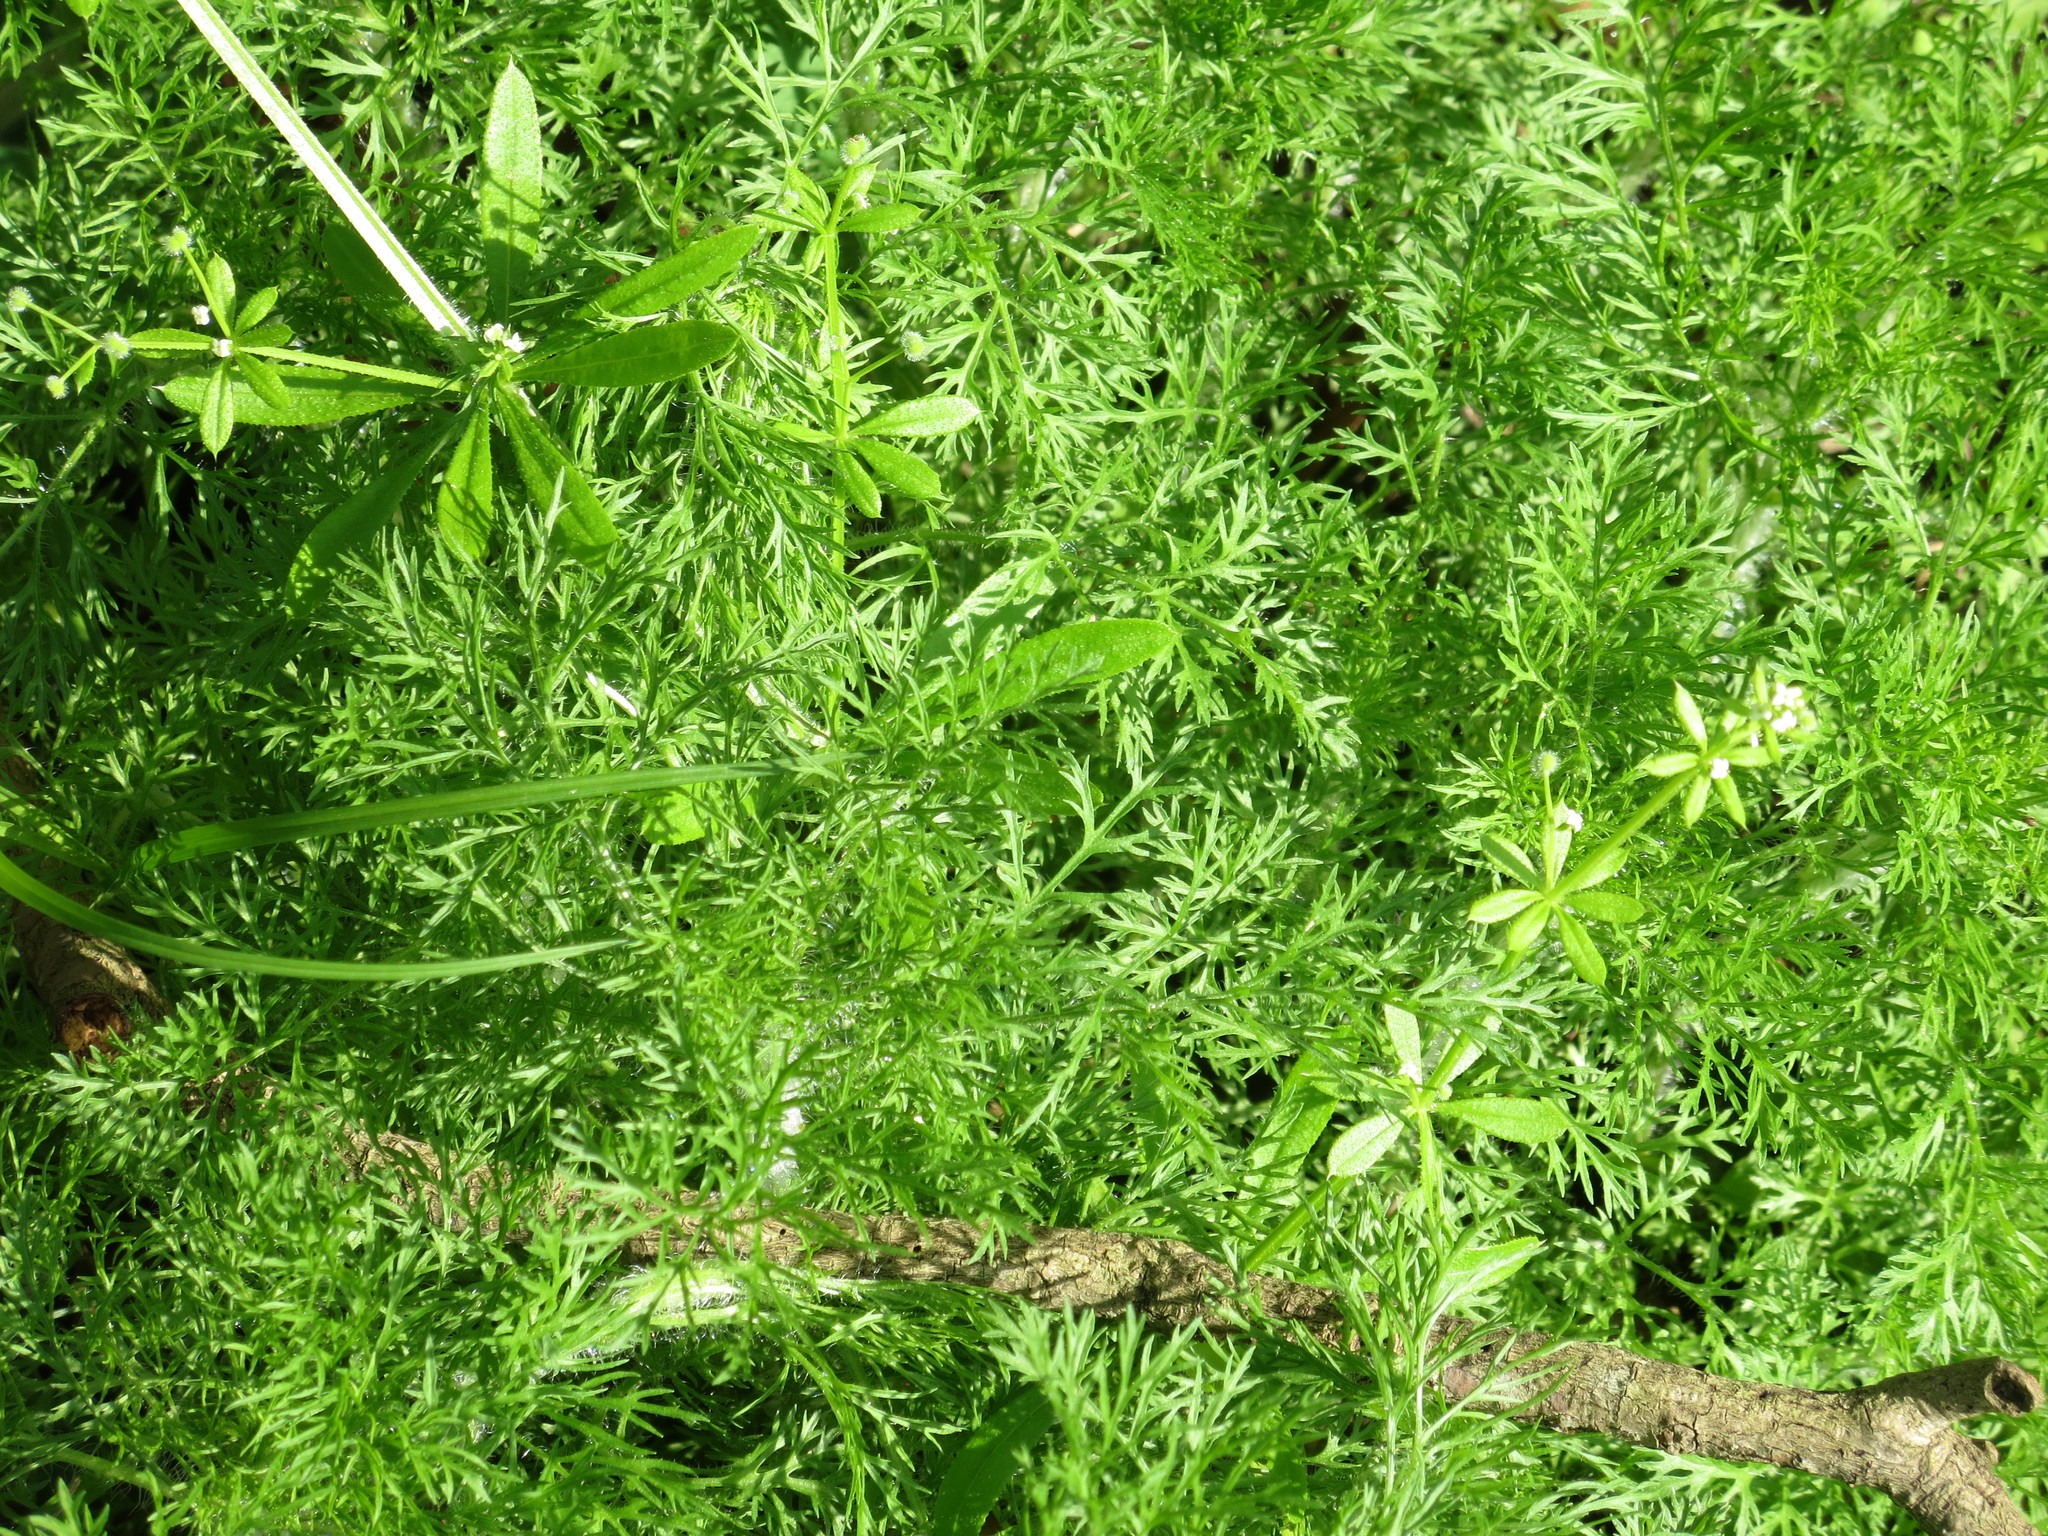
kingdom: Plantae
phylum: Tracheophyta
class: Magnoliopsida
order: Asterales
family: Asteraceae
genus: Eupatorium
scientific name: Eupatorium capillifolium
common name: Dog-fennel
